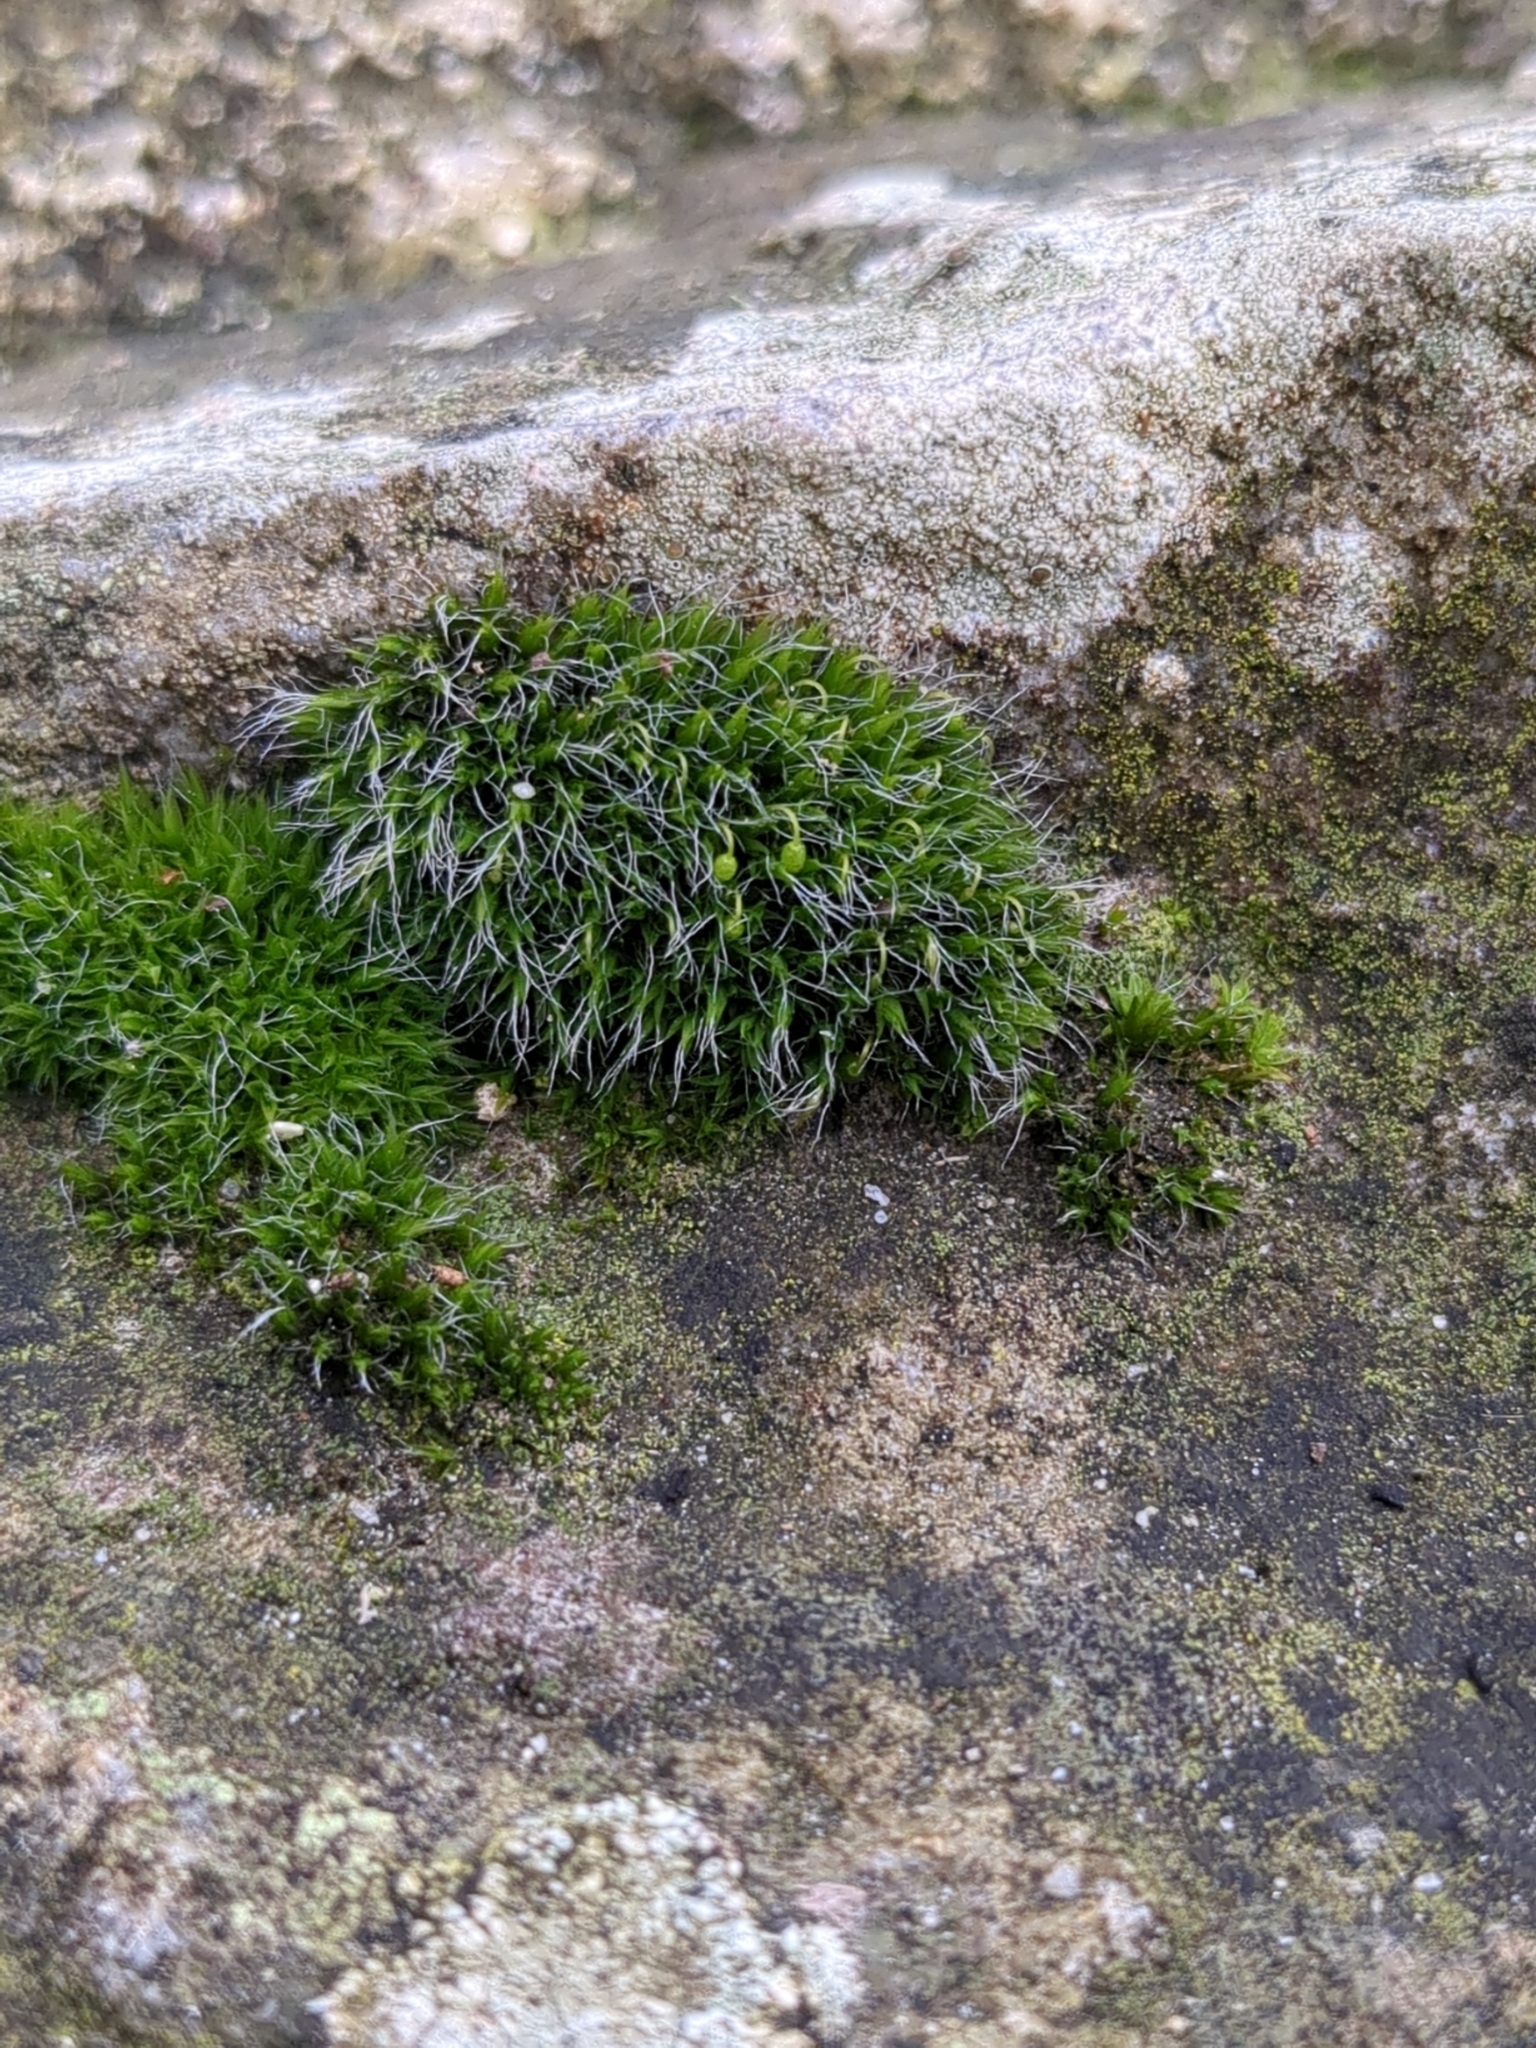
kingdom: Plantae
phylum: Bryophyta
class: Bryopsida
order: Grimmiales
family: Grimmiaceae
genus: Grimmia
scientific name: Grimmia pulvinata
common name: Grey-cushioned grimmia
